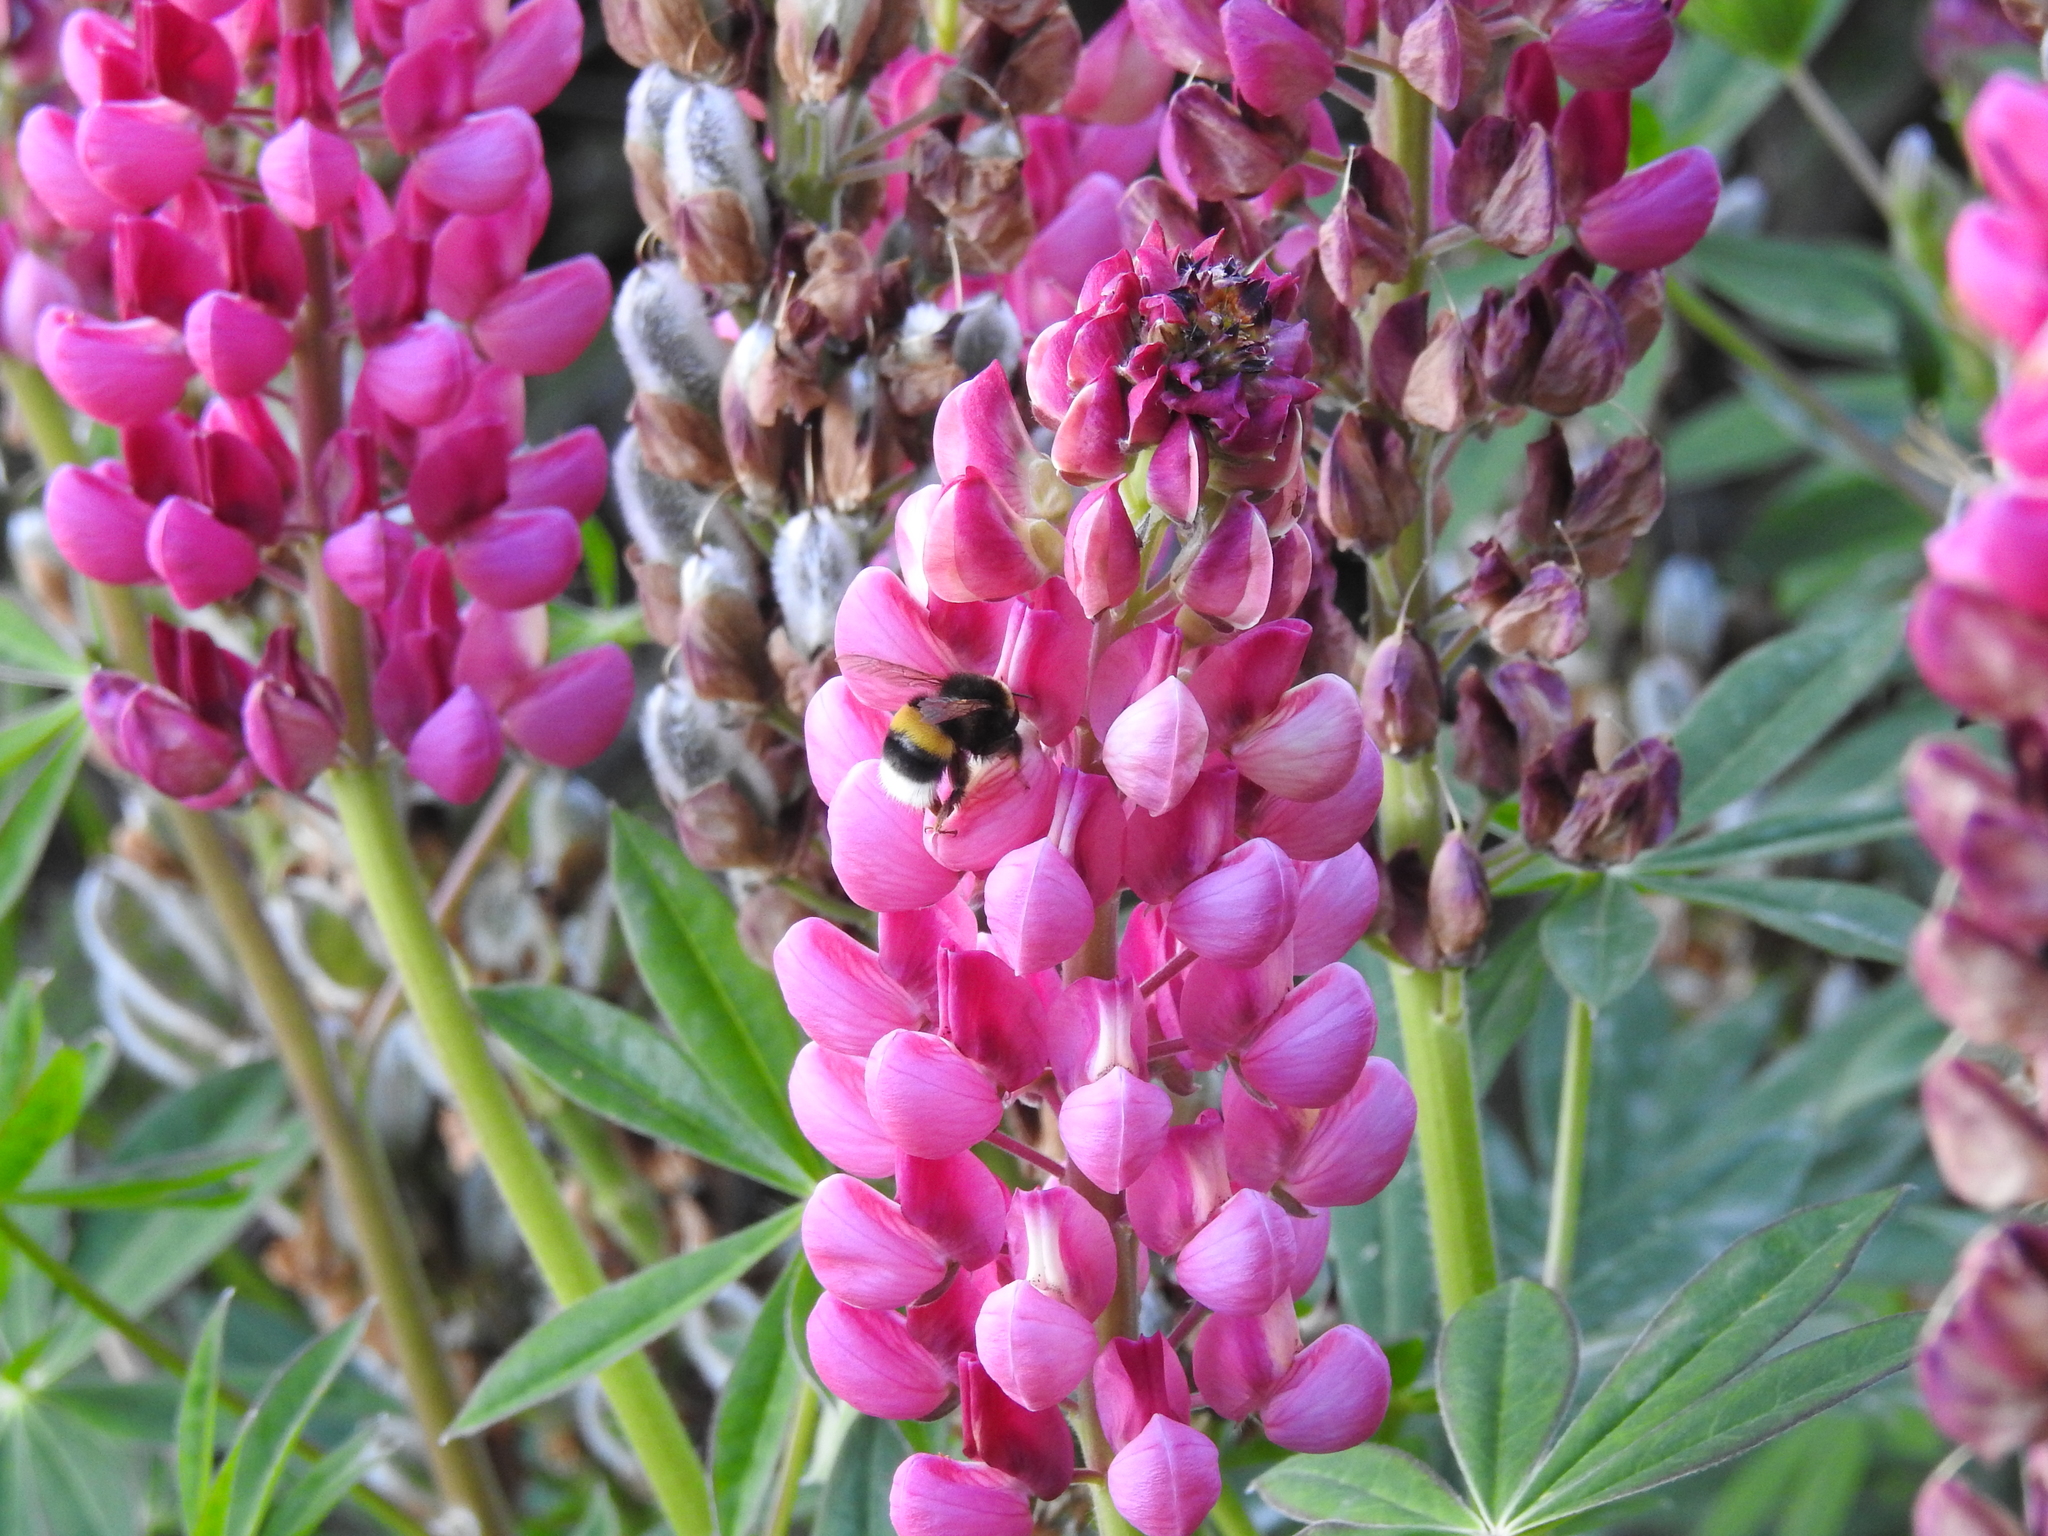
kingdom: Animalia
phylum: Arthropoda
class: Insecta
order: Hymenoptera
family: Apidae
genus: Bombus
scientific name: Bombus terrestris
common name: Buff-tailed bumblebee
